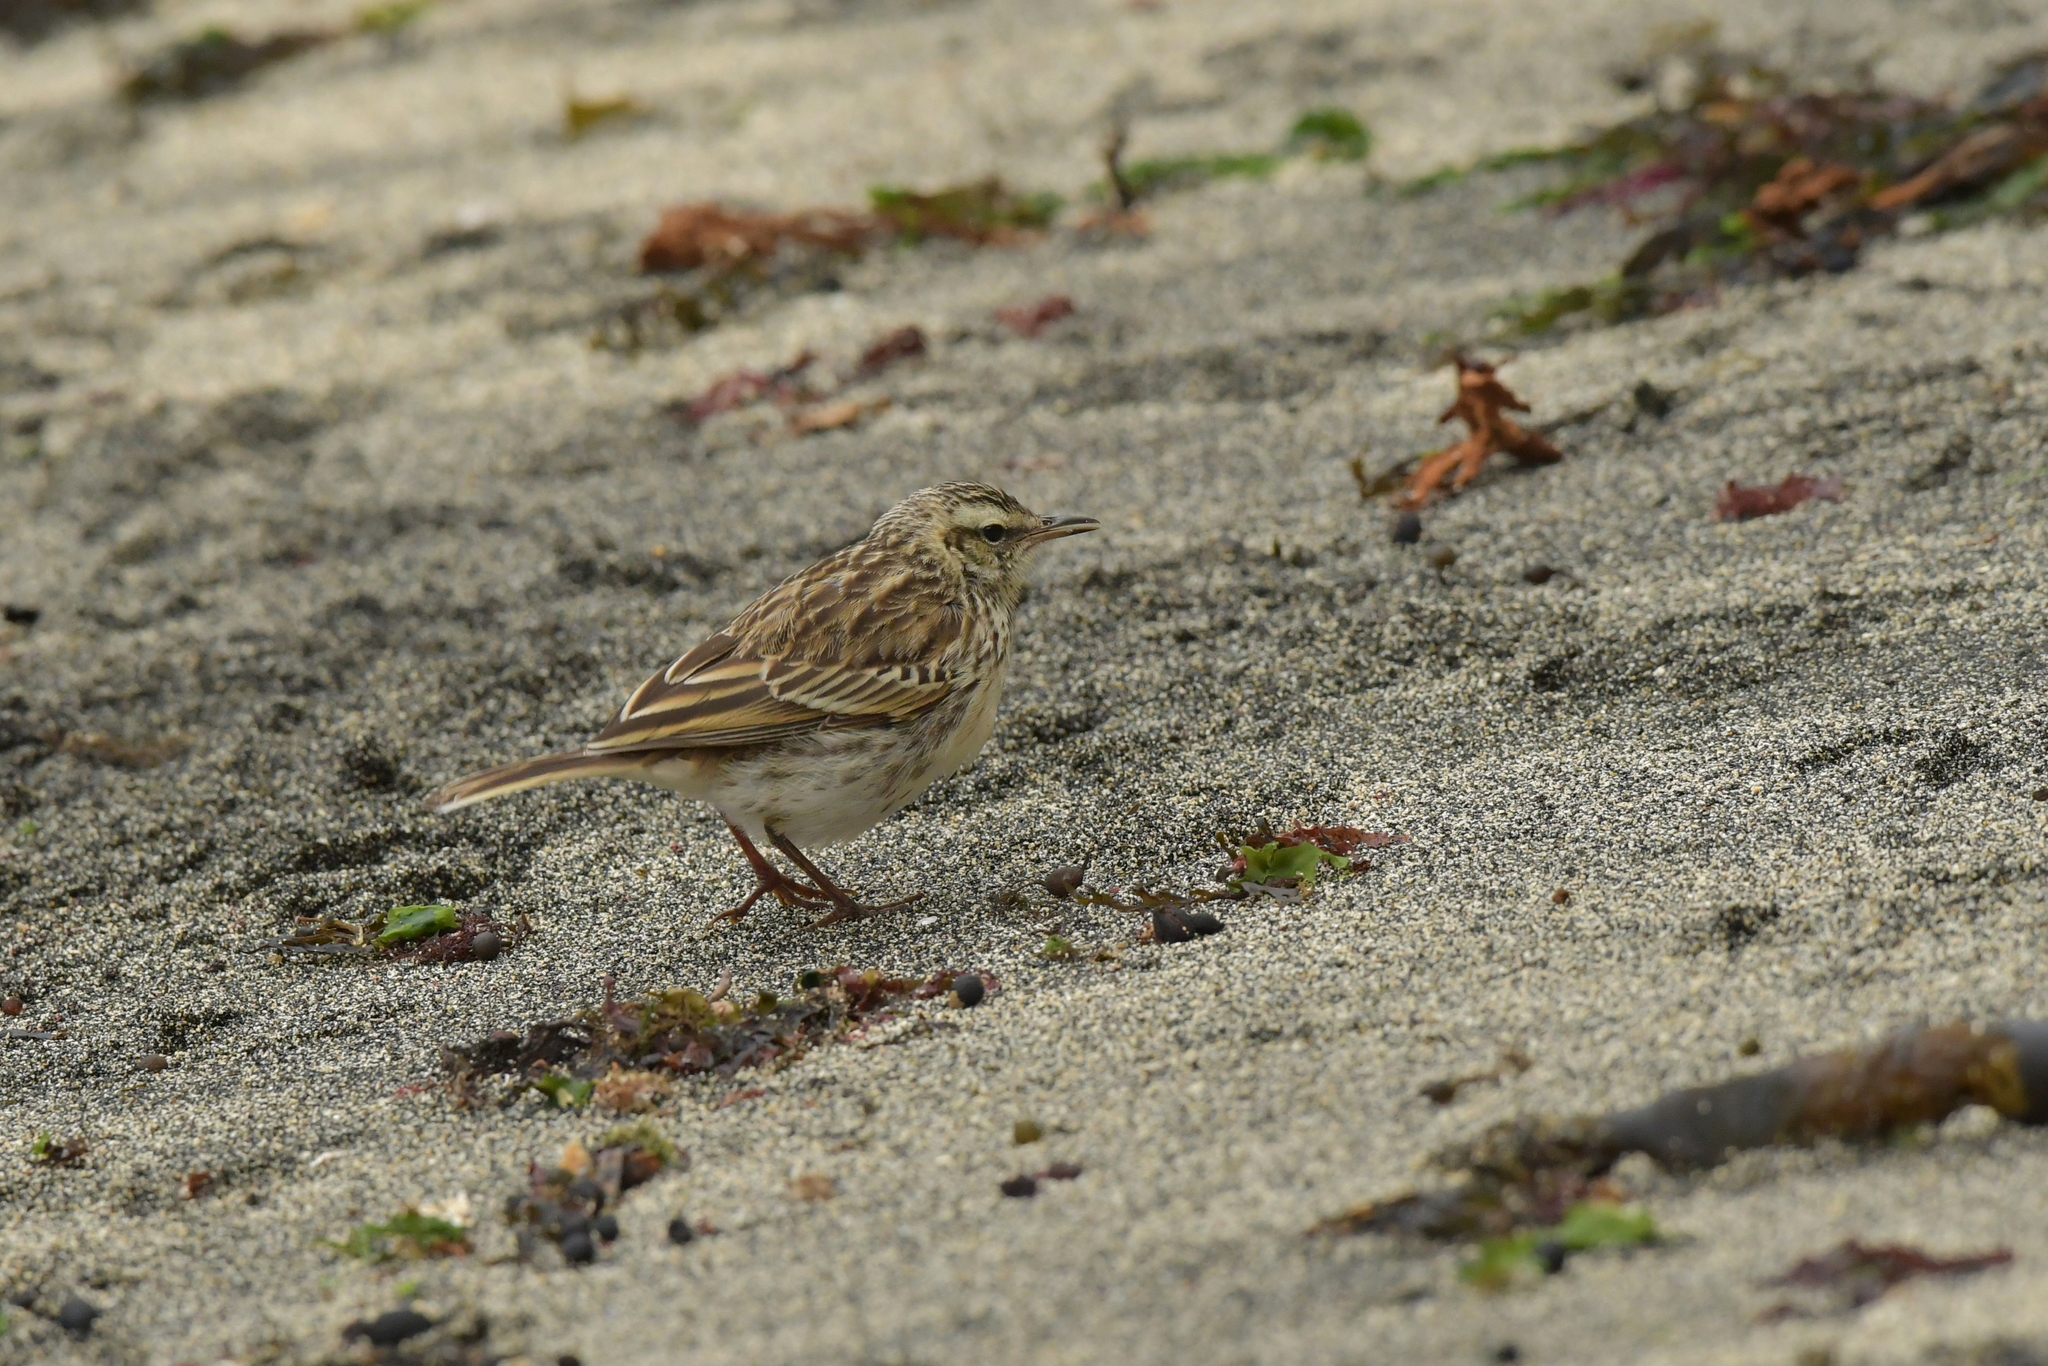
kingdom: Animalia
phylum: Chordata
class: Aves
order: Passeriformes
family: Motacillidae
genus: Anthus
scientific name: Anthus novaeseelandiae
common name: New zealand pipit
